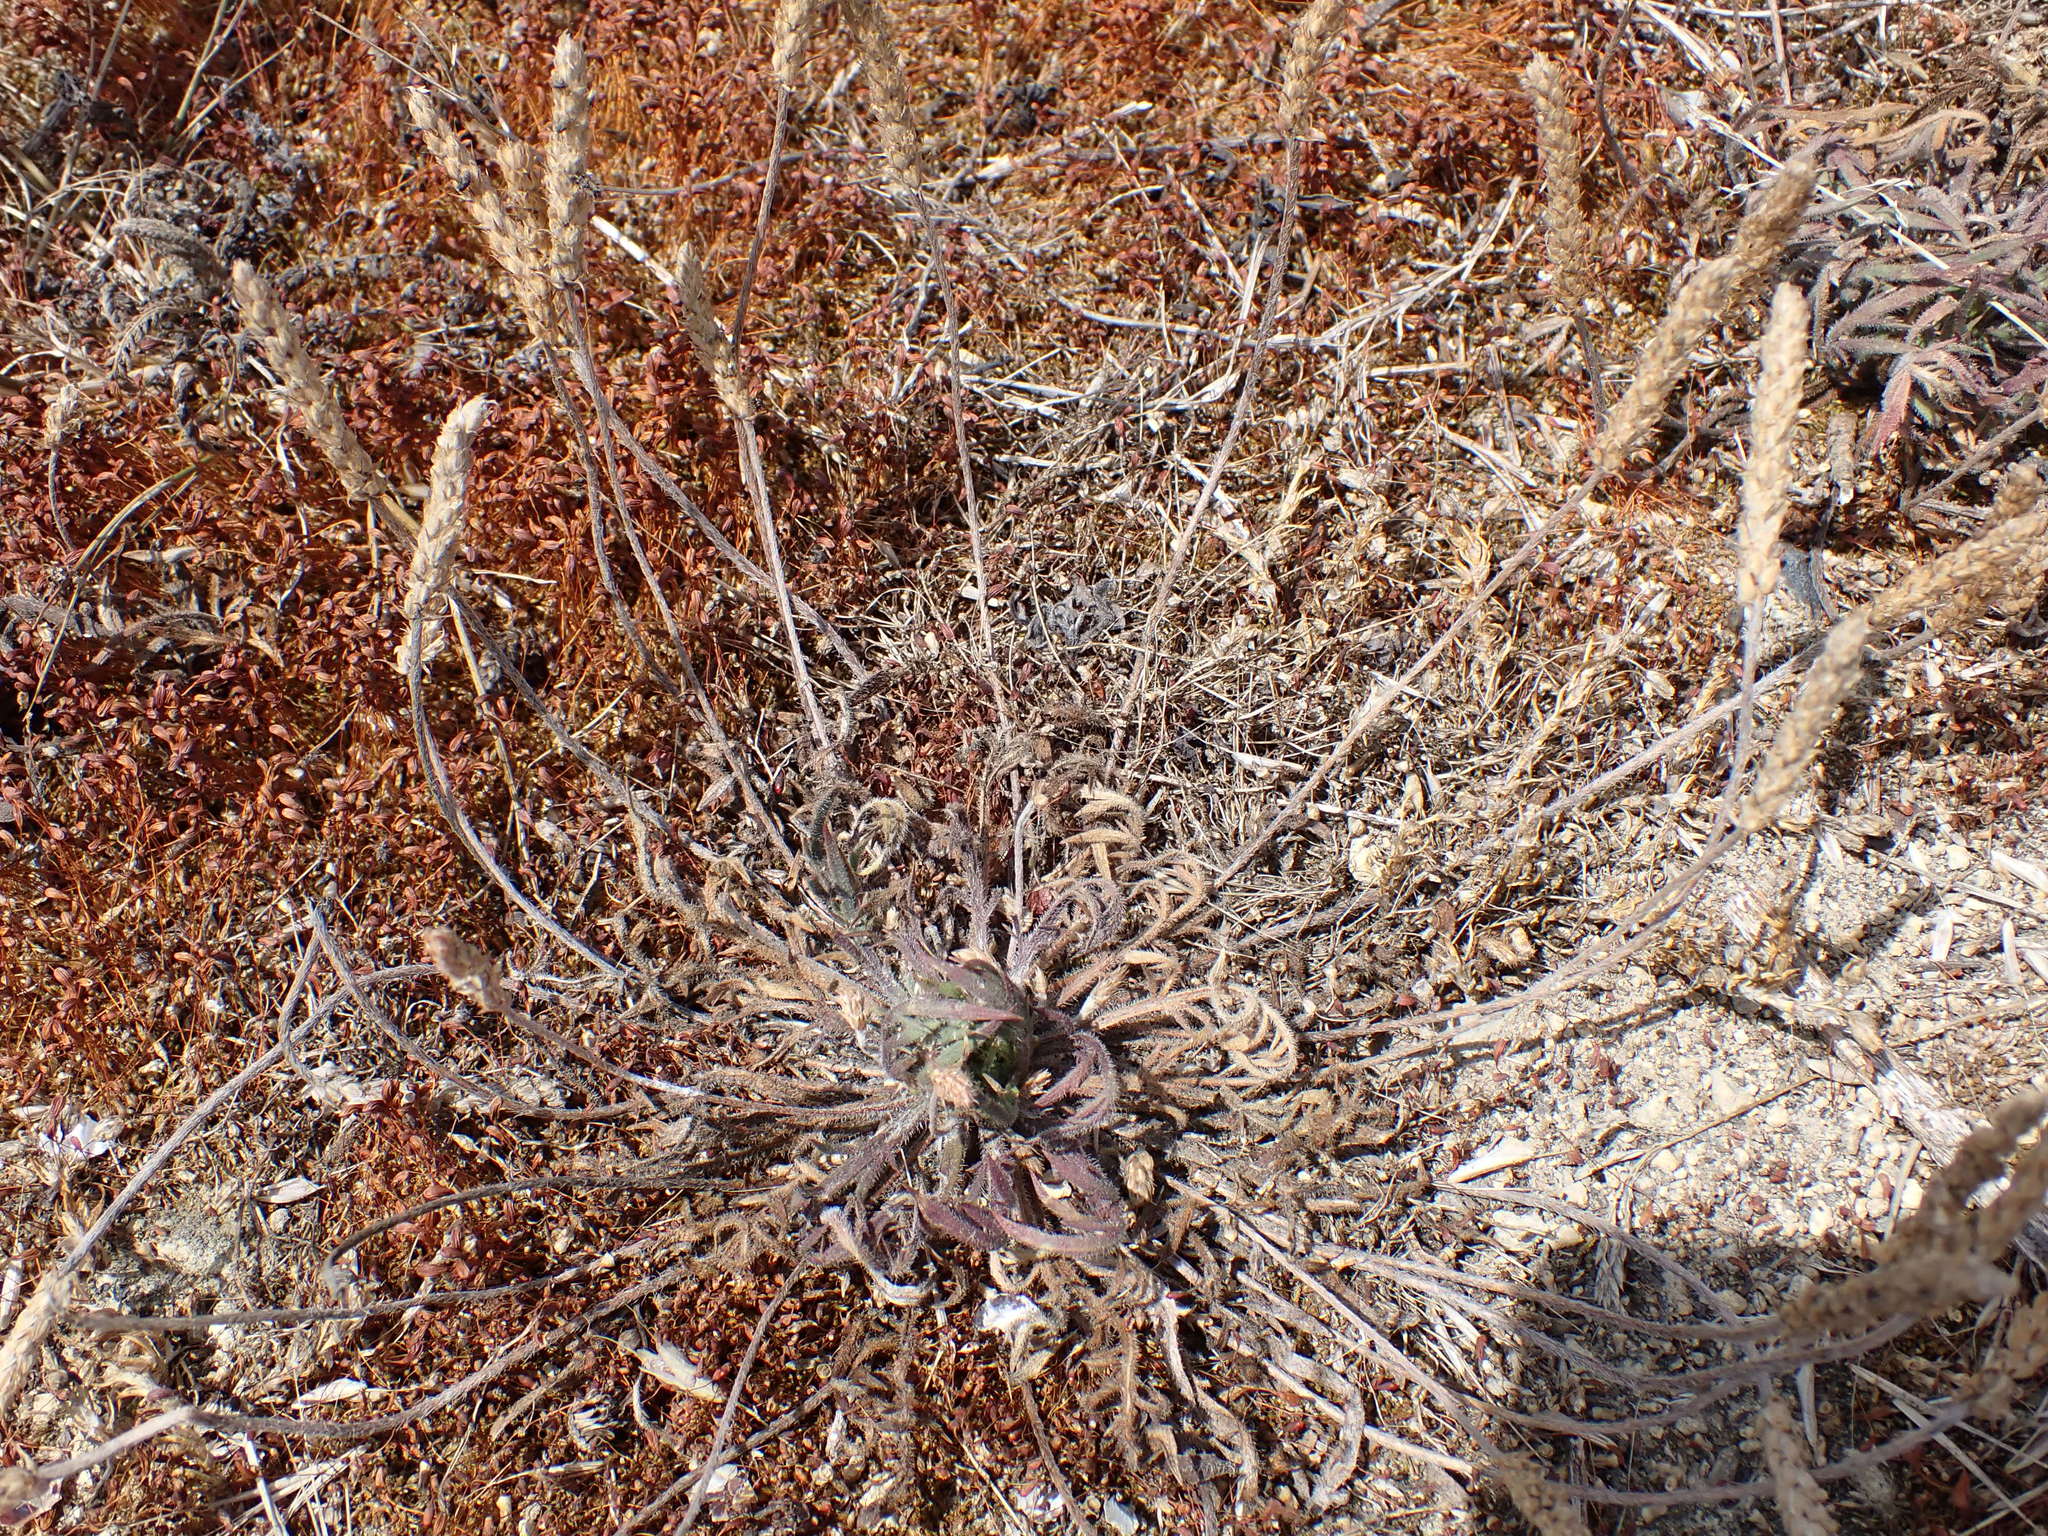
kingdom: Plantae
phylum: Tracheophyta
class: Magnoliopsida
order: Lamiales
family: Plantaginaceae
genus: Plantago
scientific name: Plantago coronopus
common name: Buck's-horn plantain
